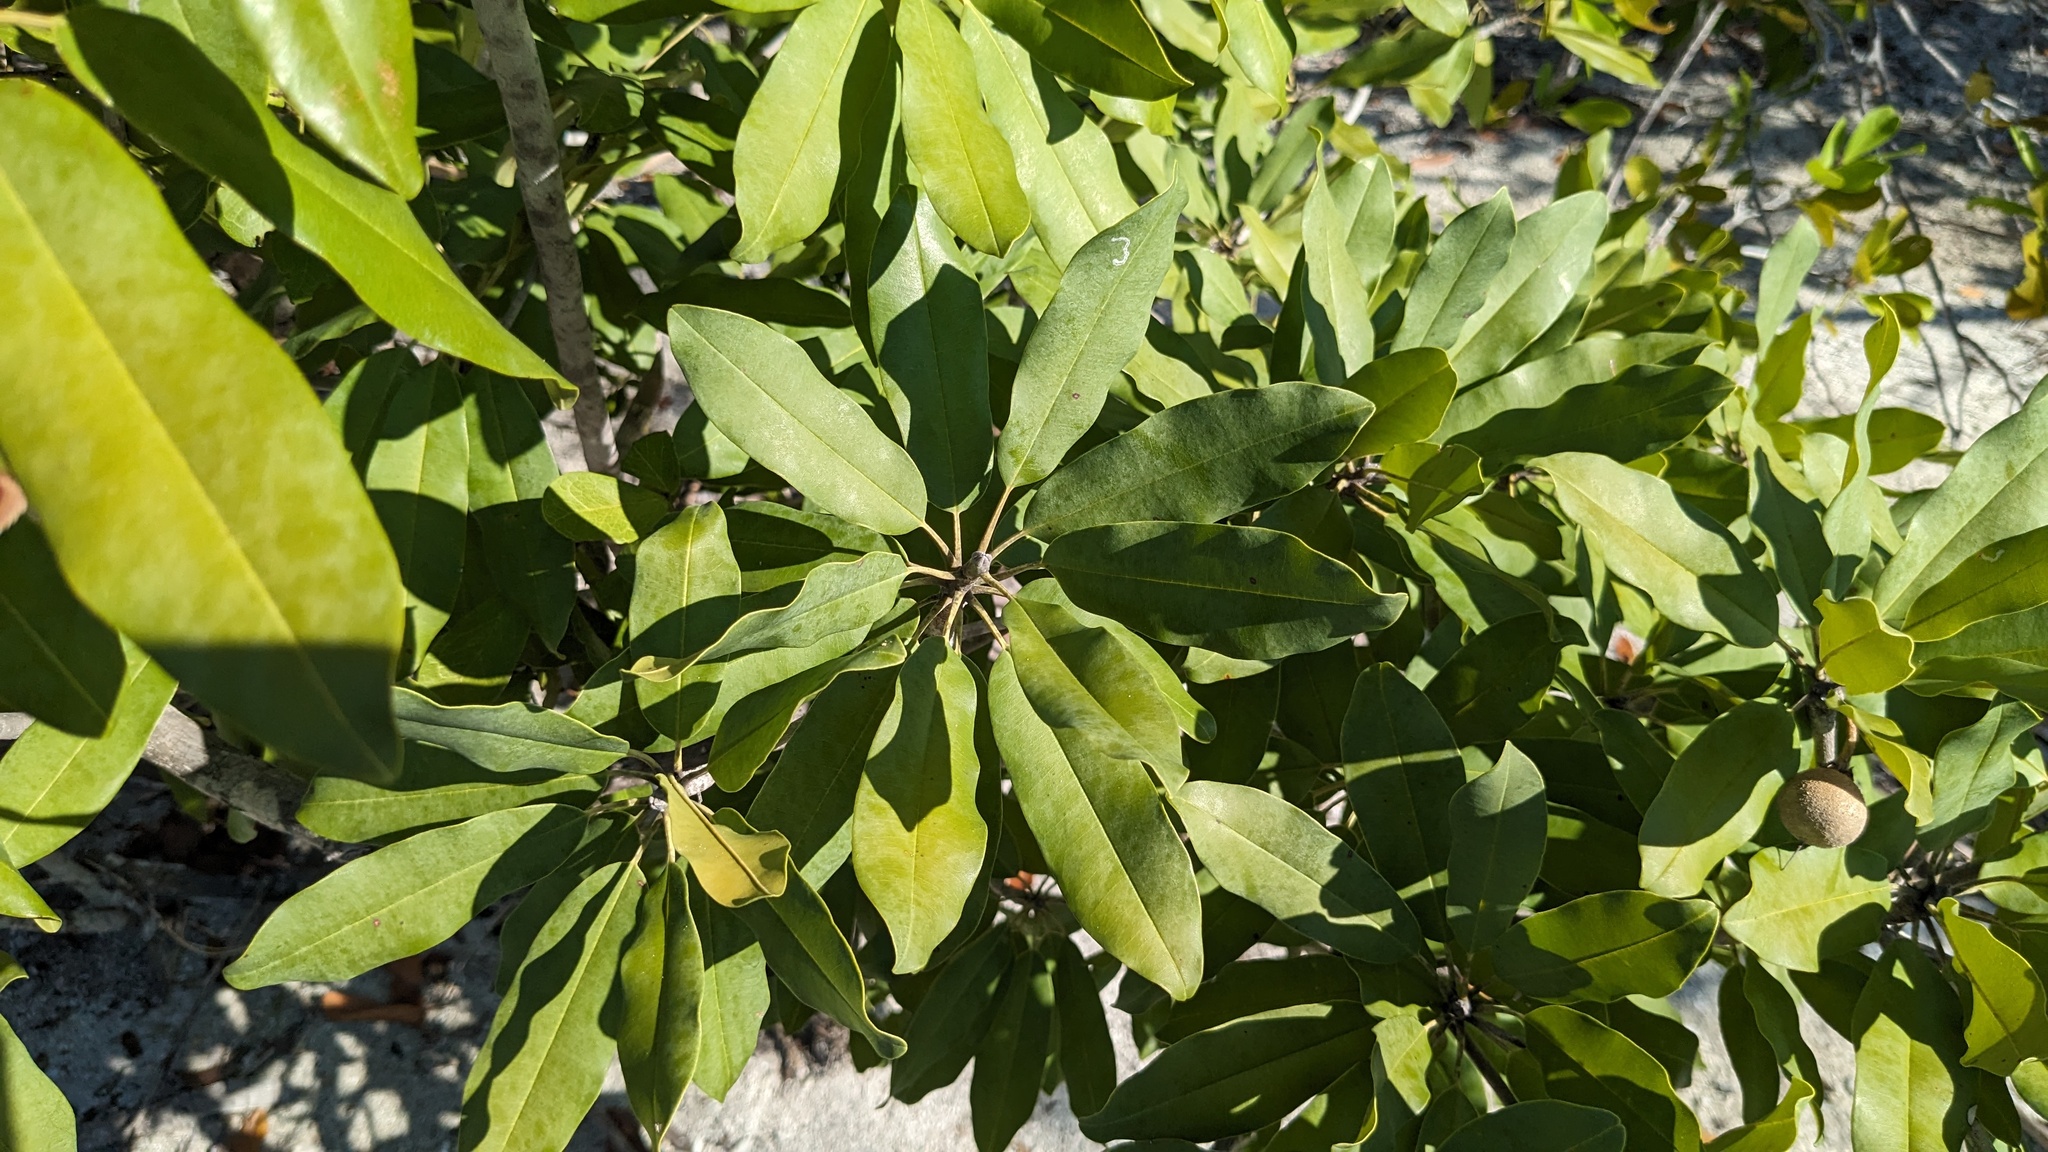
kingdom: Plantae
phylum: Tracheophyta
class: Magnoliopsida
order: Ericales
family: Sapotaceae
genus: Manilkara
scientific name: Manilkara jaimiqui
